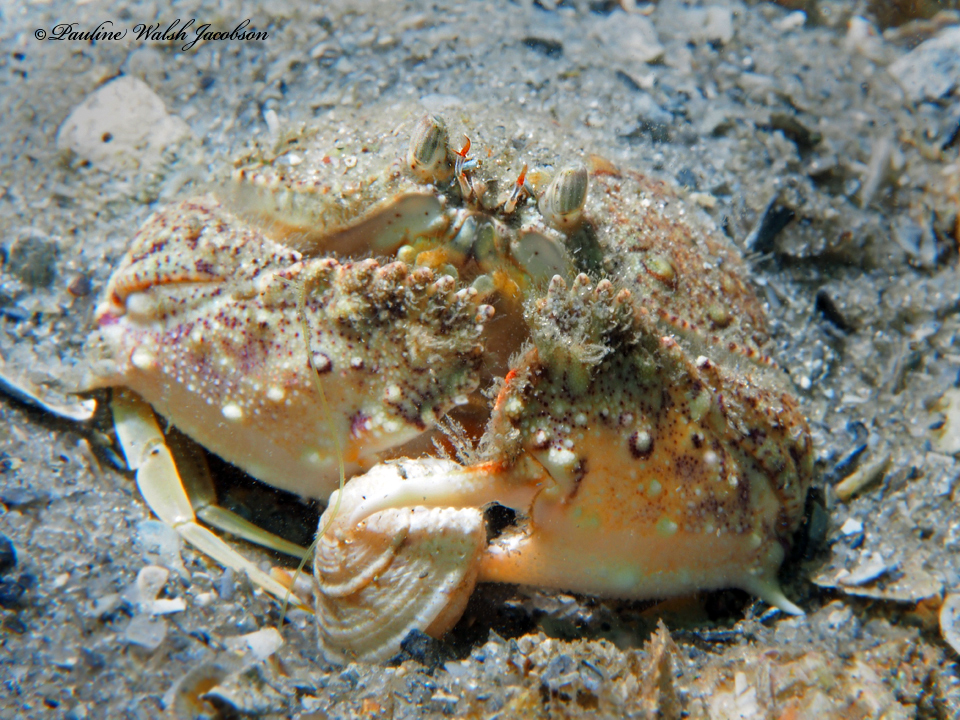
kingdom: Animalia
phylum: Arthropoda
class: Malacostraca
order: Decapoda
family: Calappidae
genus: Cryptosoma
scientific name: Cryptosoma bairdii
